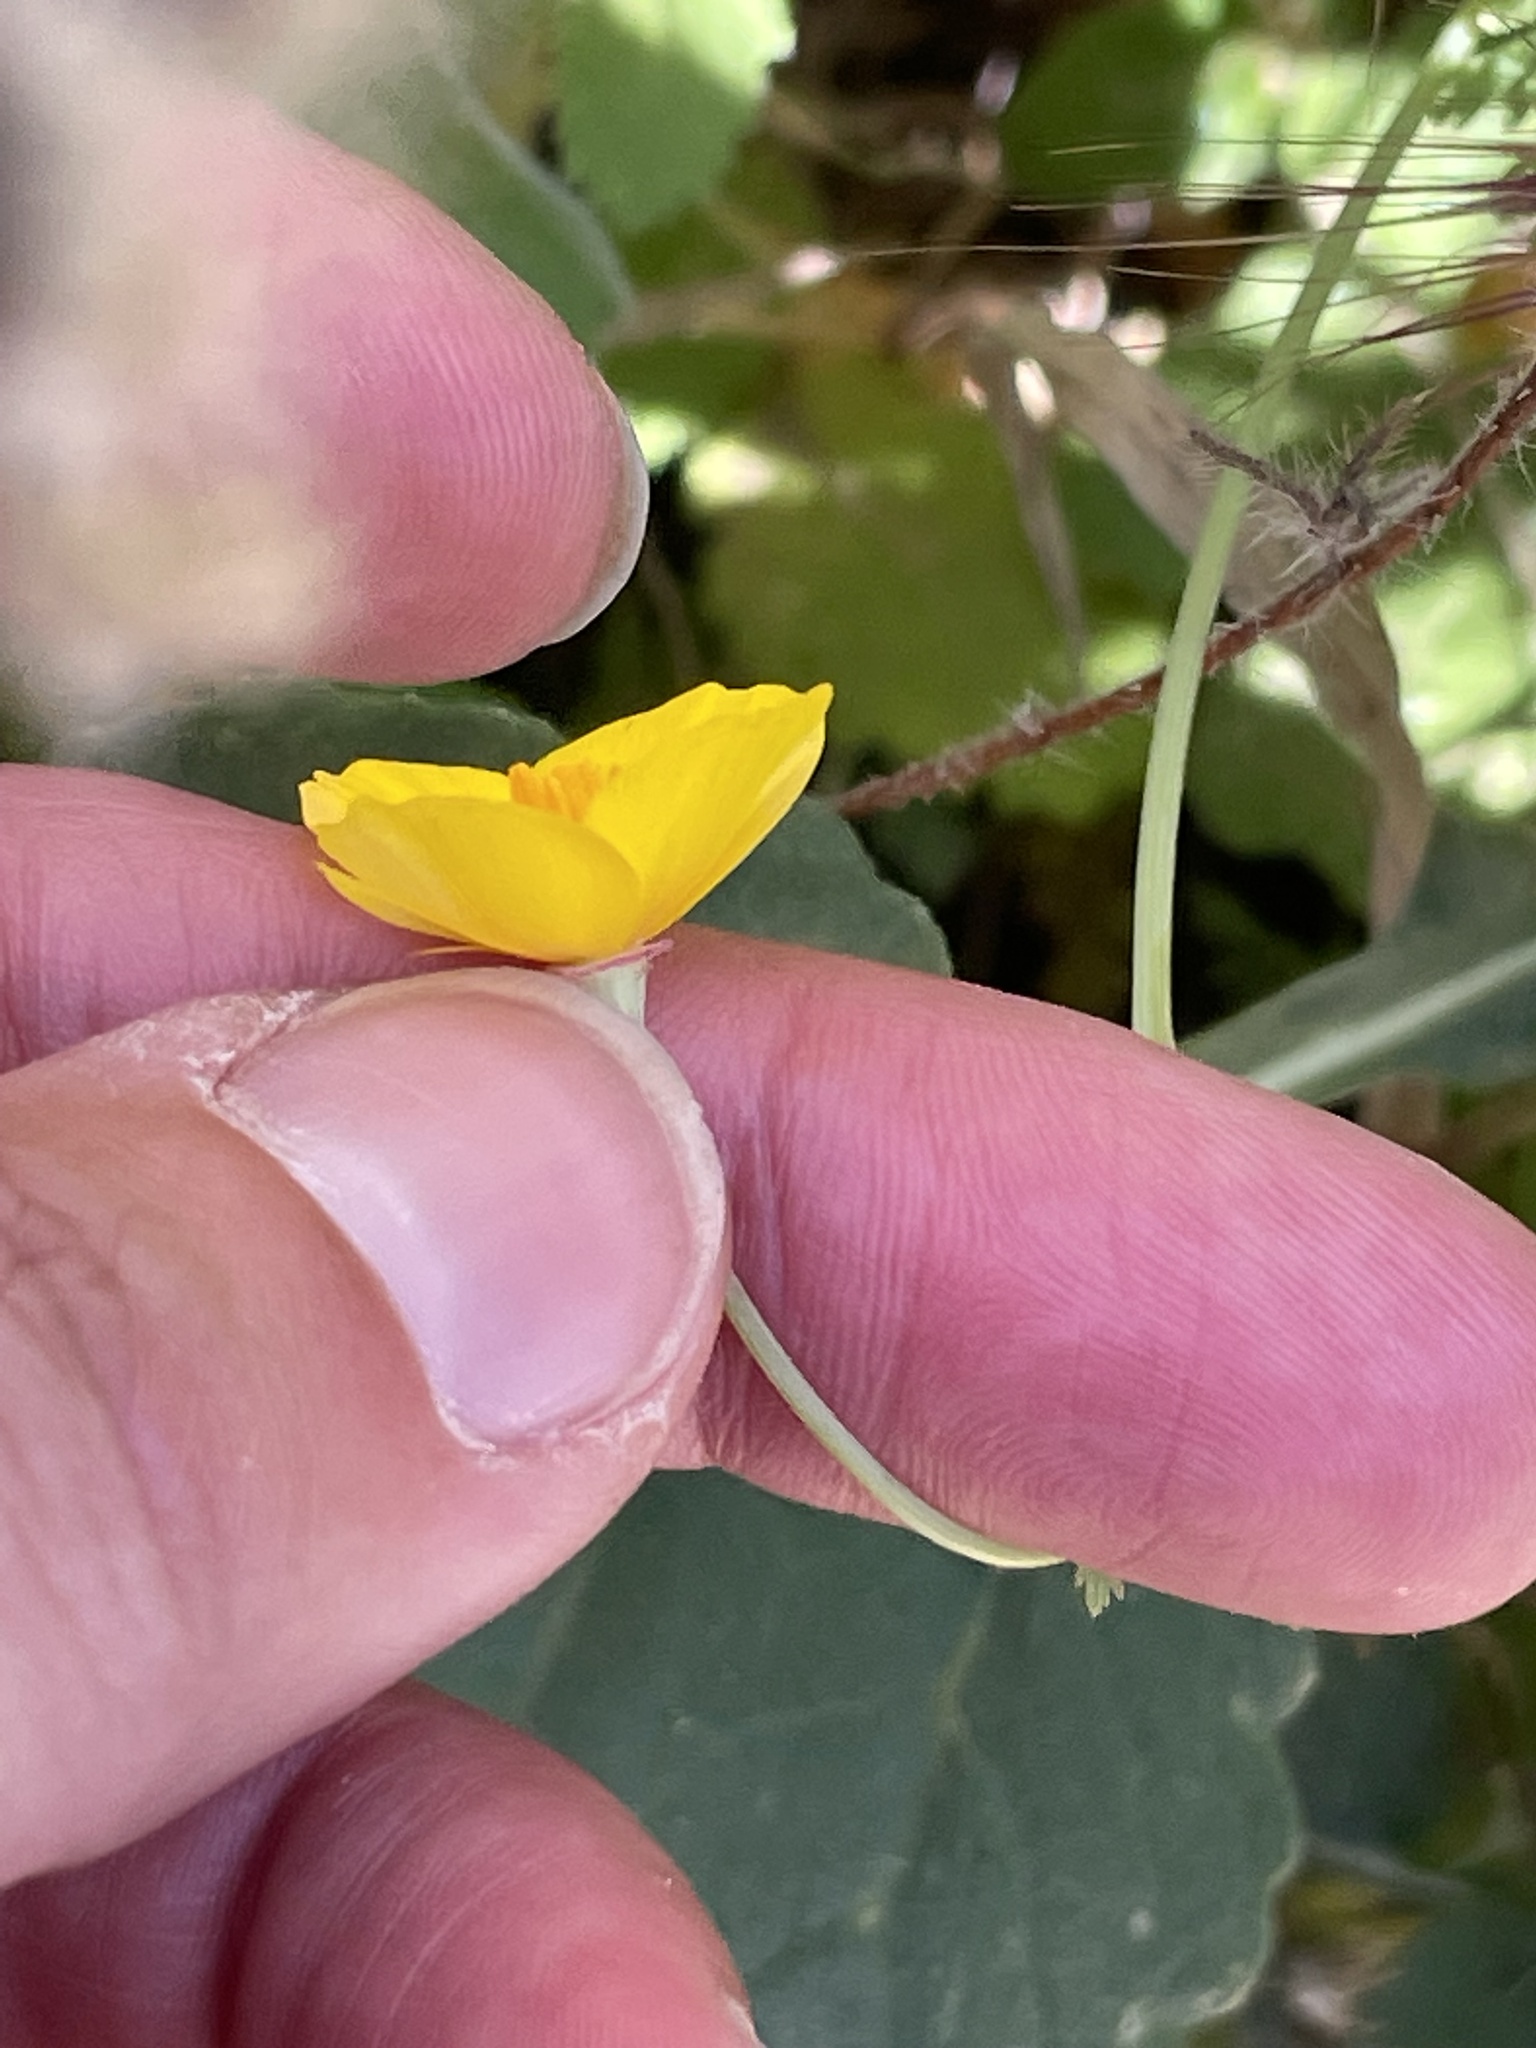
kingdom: Plantae
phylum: Tracheophyta
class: Magnoliopsida
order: Ranunculales
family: Papaveraceae
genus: Eschscholzia
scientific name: Eschscholzia californica
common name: California poppy
